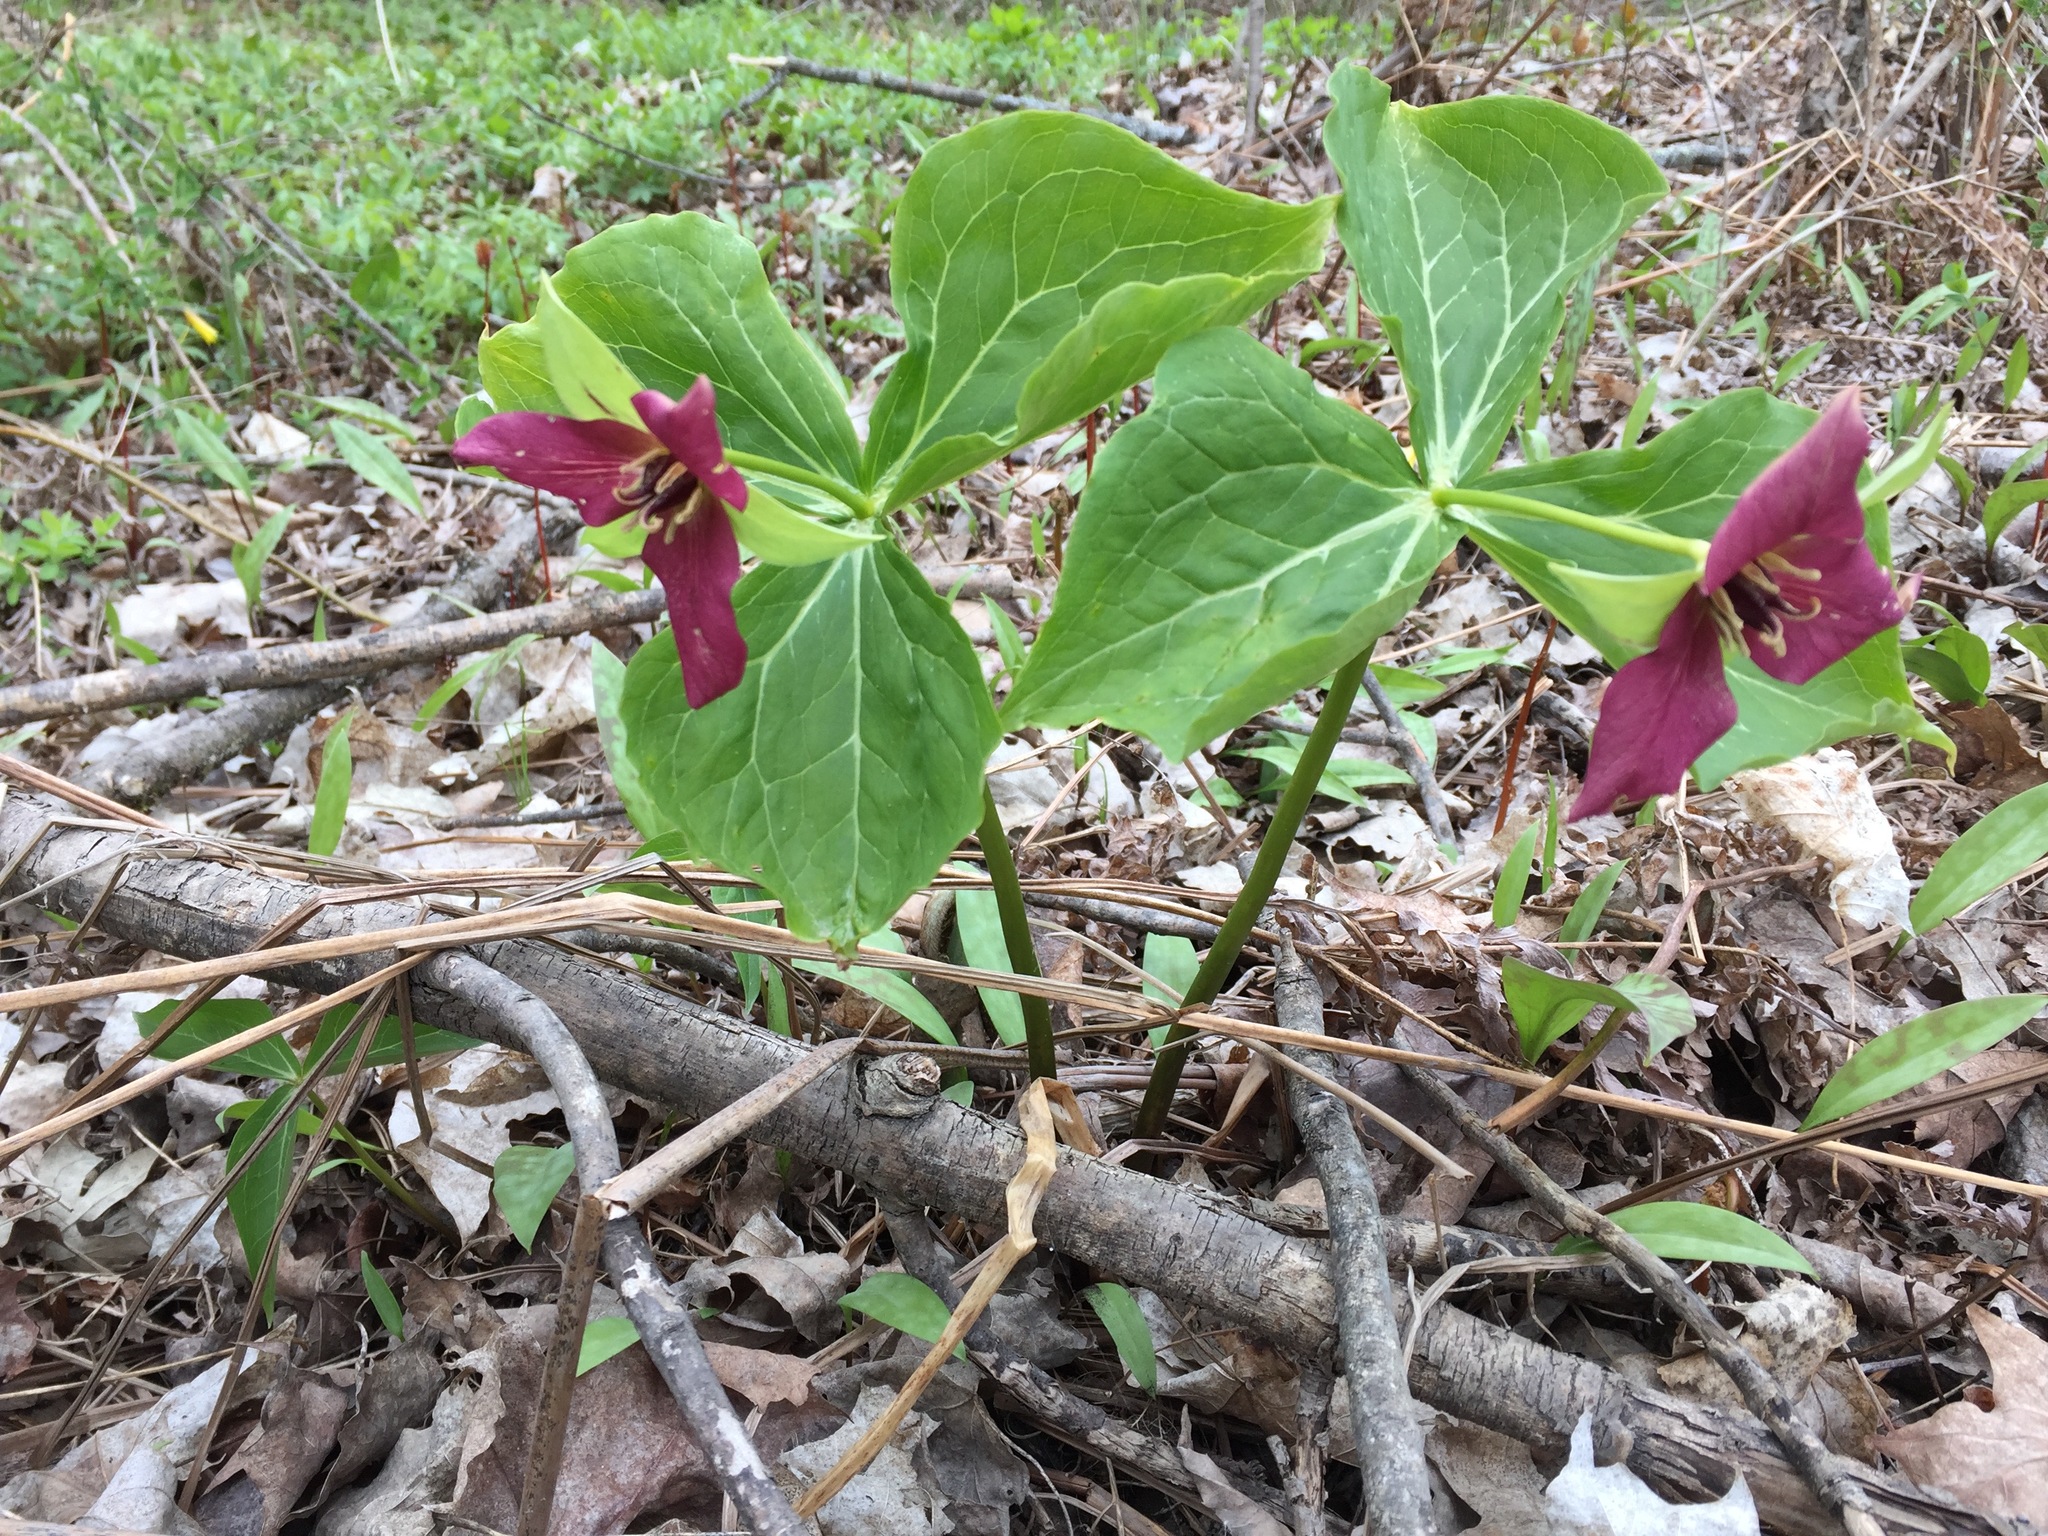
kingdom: Plantae
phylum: Tracheophyta
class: Liliopsida
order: Liliales
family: Melanthiaceae
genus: Trillium
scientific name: Trillium erectum
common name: Purple trillium
